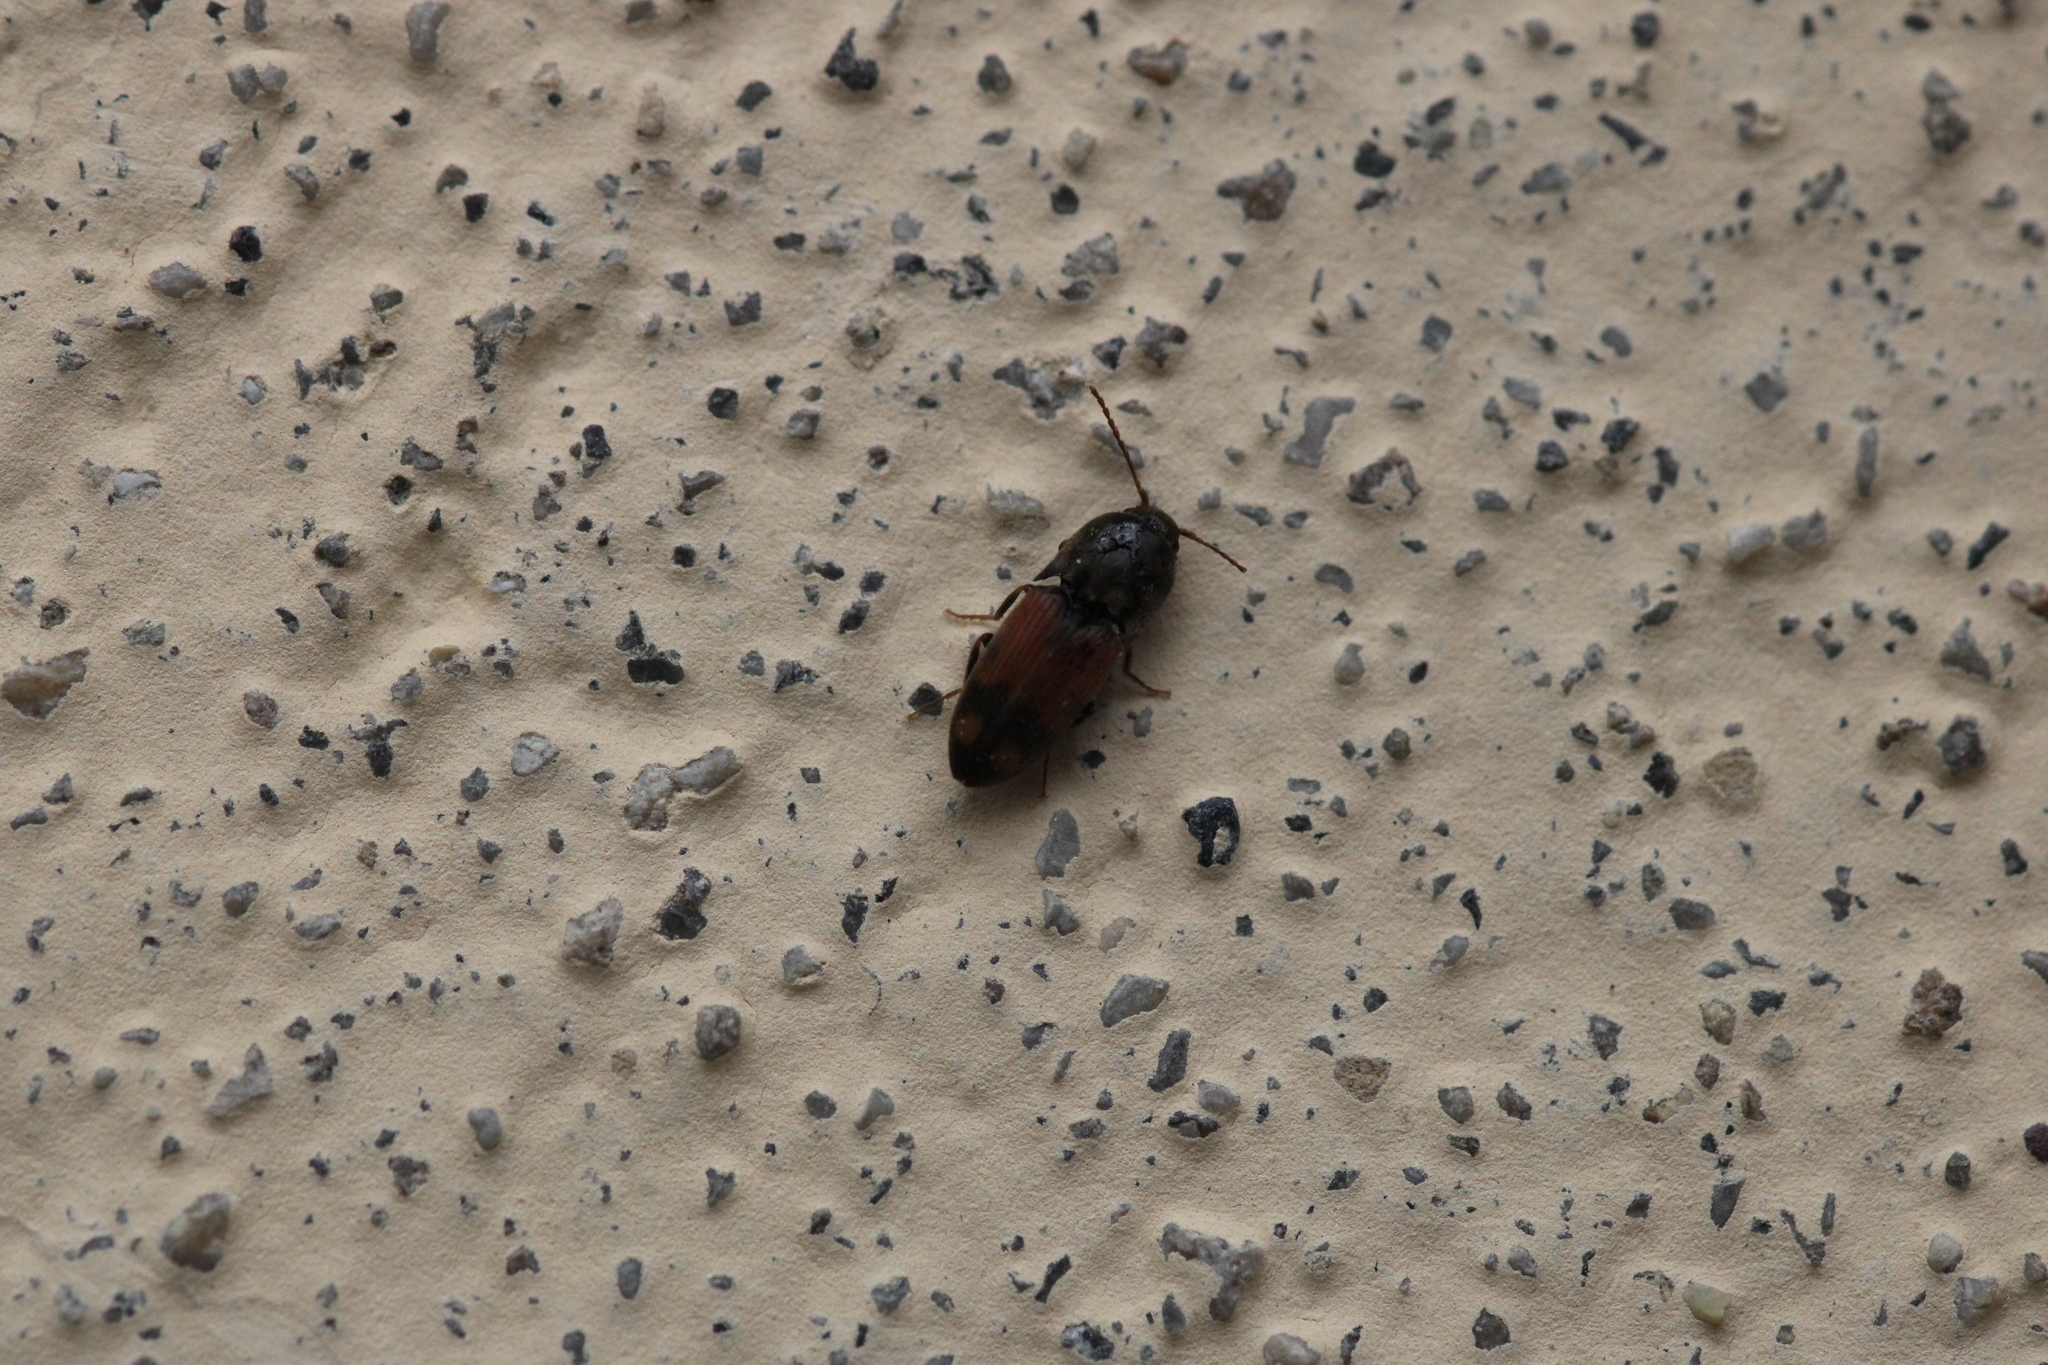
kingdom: Animalia
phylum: Arthropoda
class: Insecta
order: Coleoptera
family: Elateridae
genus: Drasterius
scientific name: Drasterius bimaculatus
